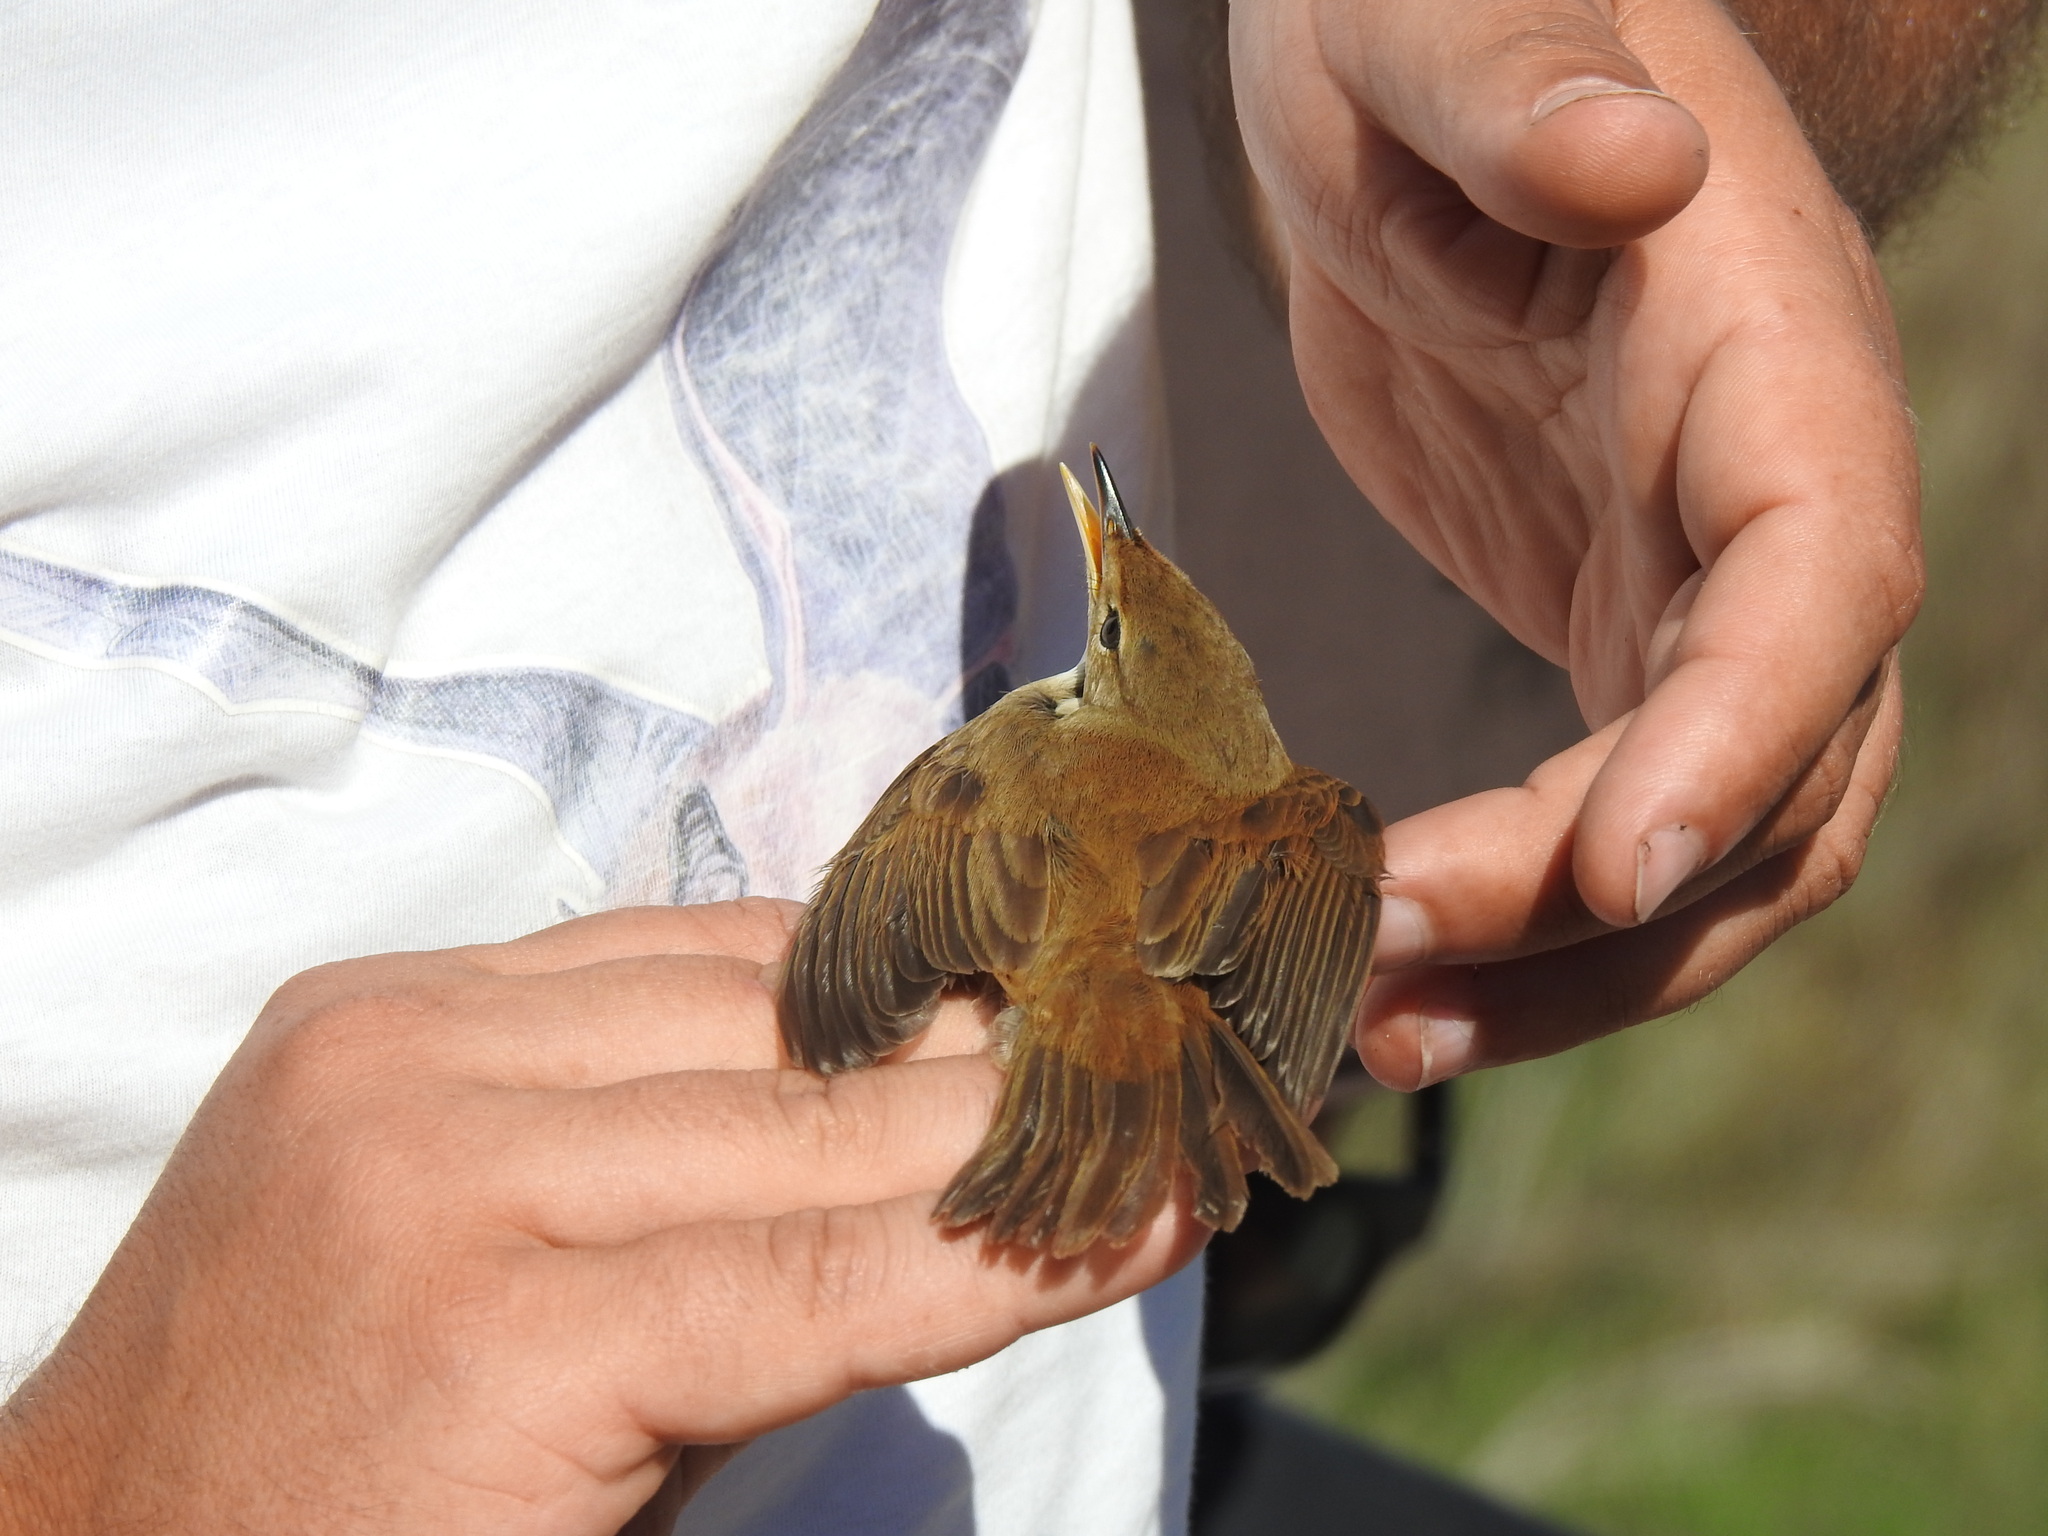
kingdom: Animalia
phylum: Chordata
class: Aves
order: Passeriformes
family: Acrocephalidae
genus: Acrocephalus
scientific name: Acrocephalus scirpaceus
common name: Eurasian reed warbler
